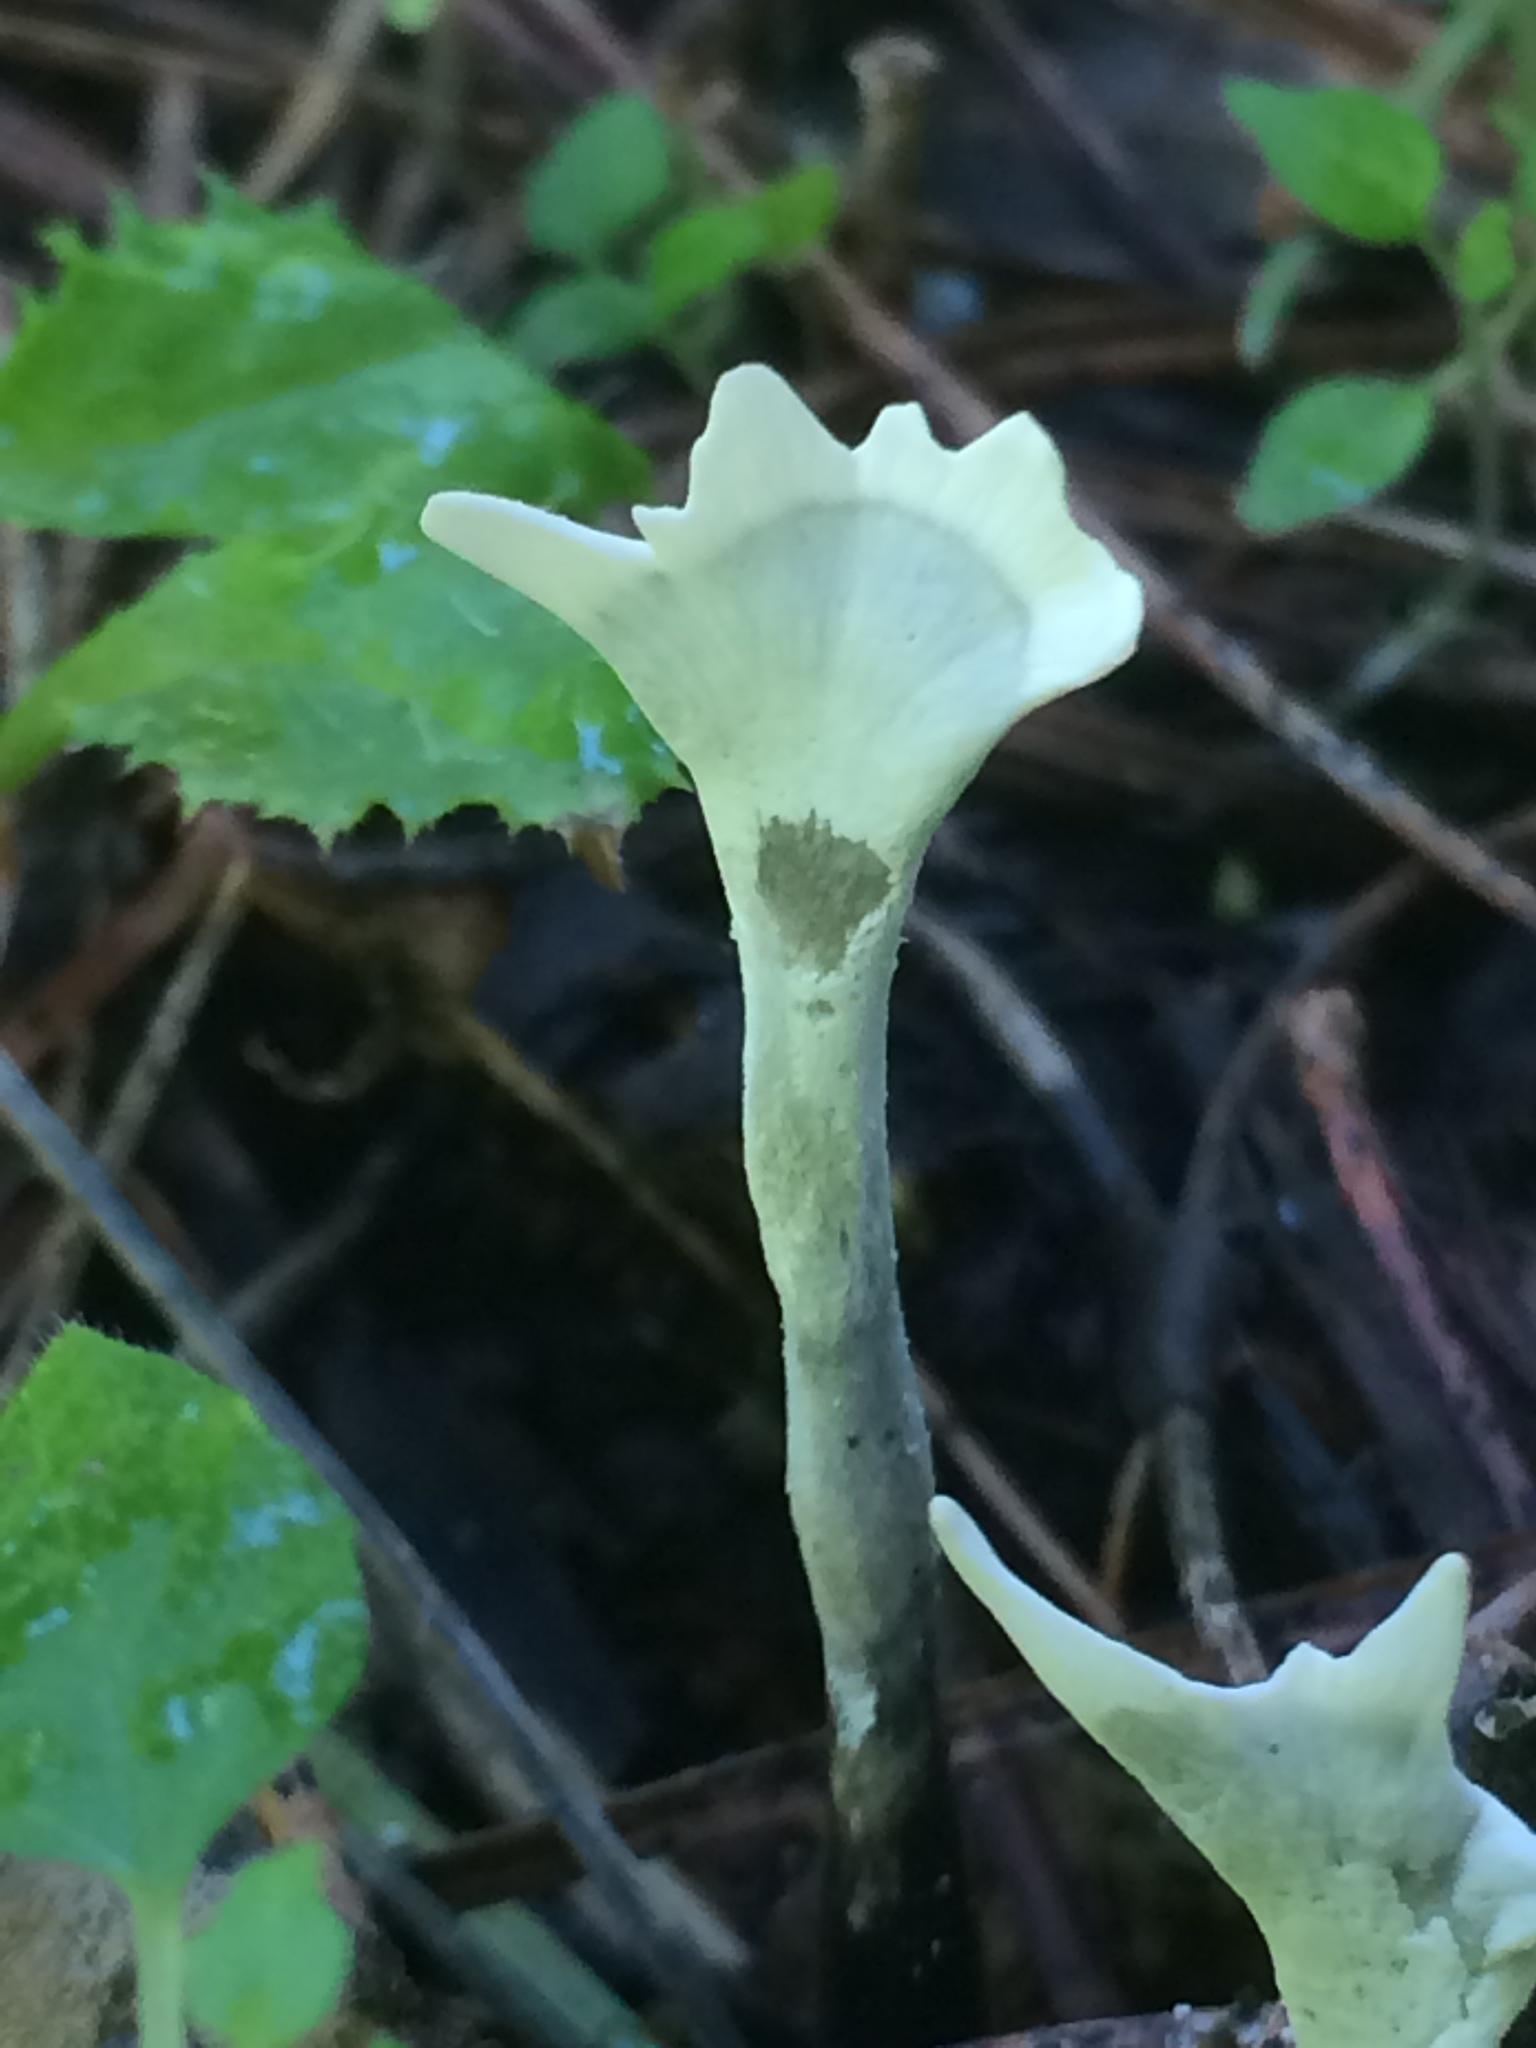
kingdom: Fungi
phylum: Ascomycota
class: Sordariomycetes
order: Xylariales
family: Xylariaceae
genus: Xylaria
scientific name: Xylaria hypoxylon
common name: Candle-snuff fungus
